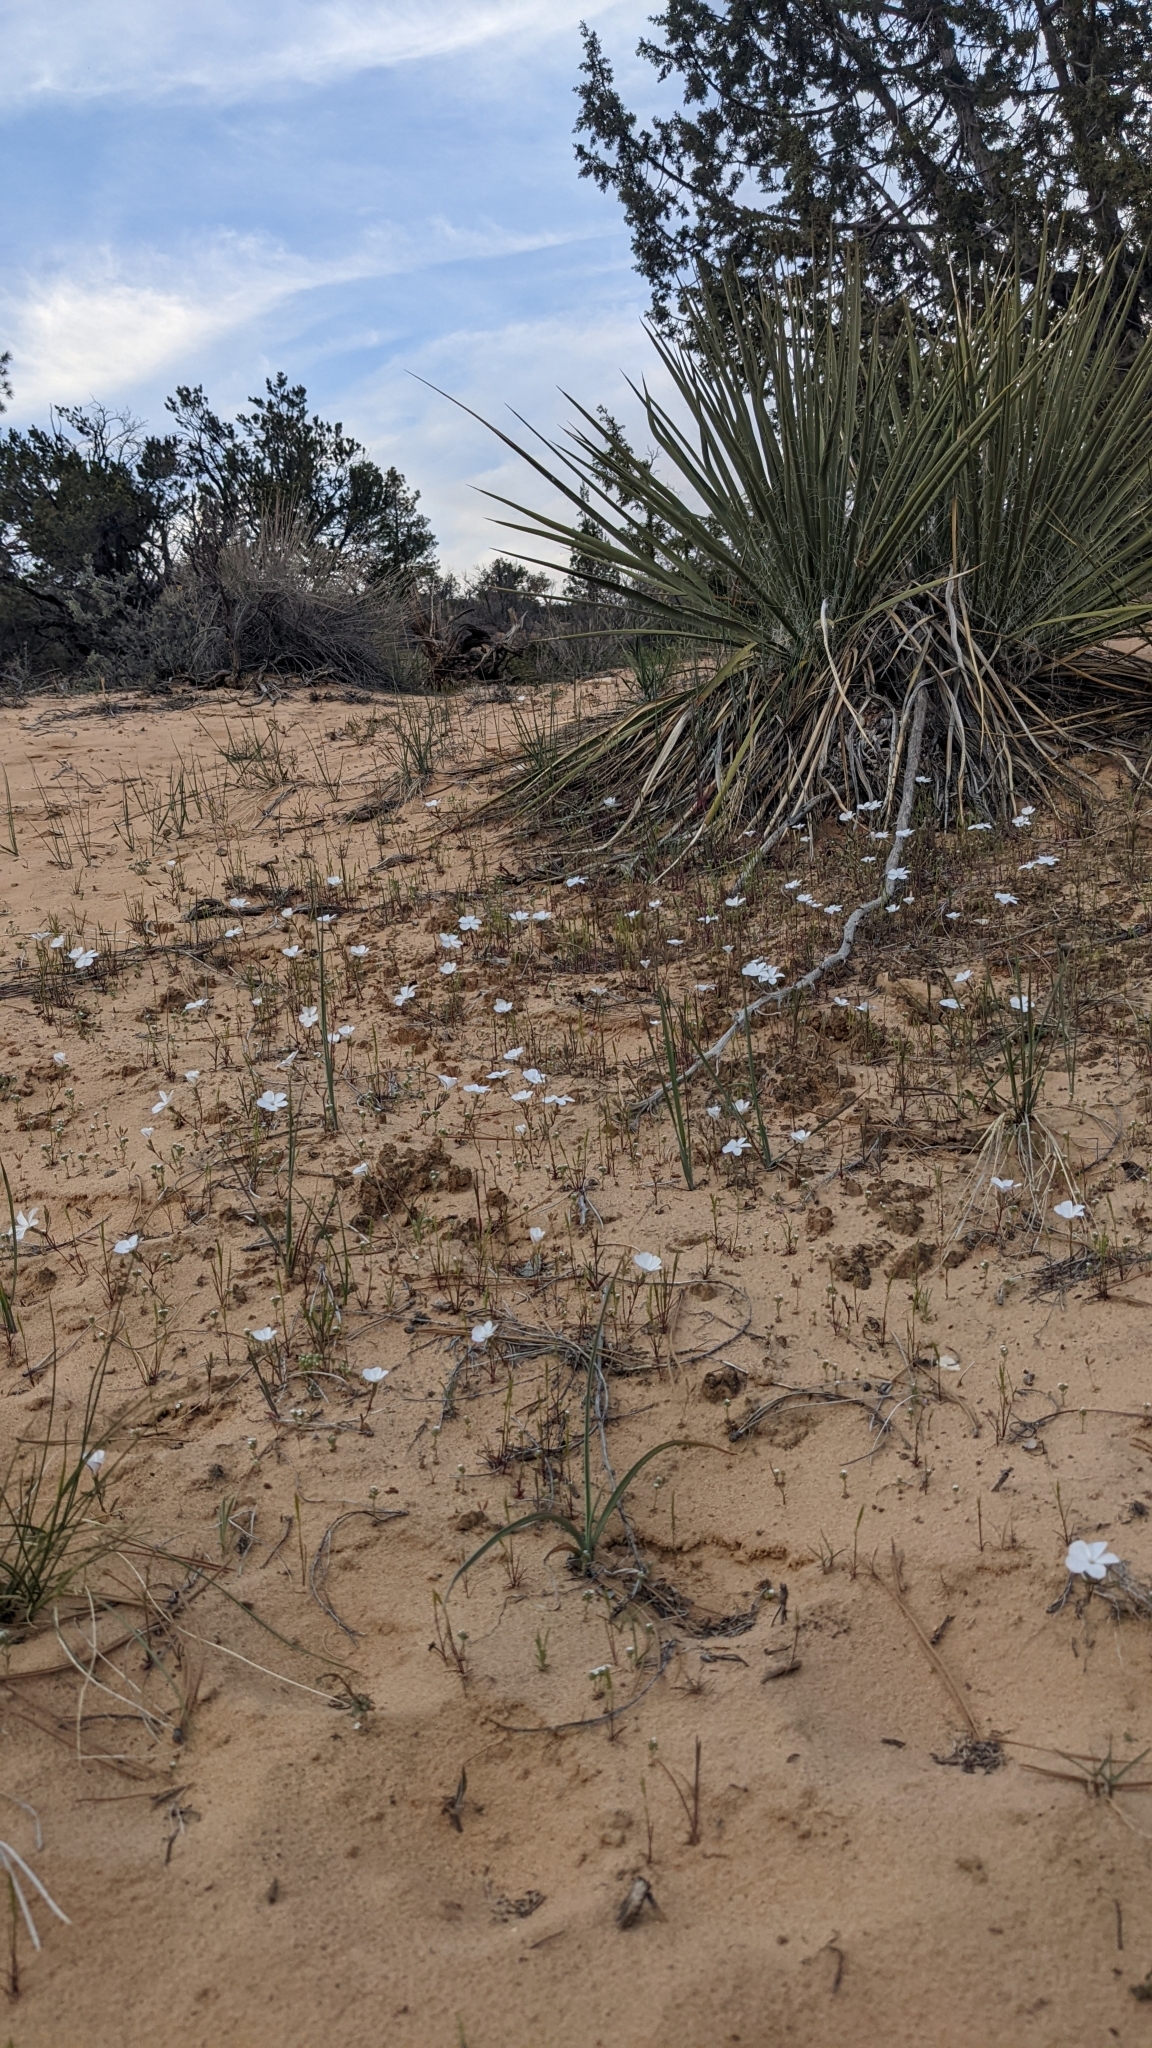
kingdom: Plantae
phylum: Tracheophyta
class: Magnoliopsida
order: Ericales
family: Polemoniaceae
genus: Linanthus
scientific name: Linanthus dichotomus
